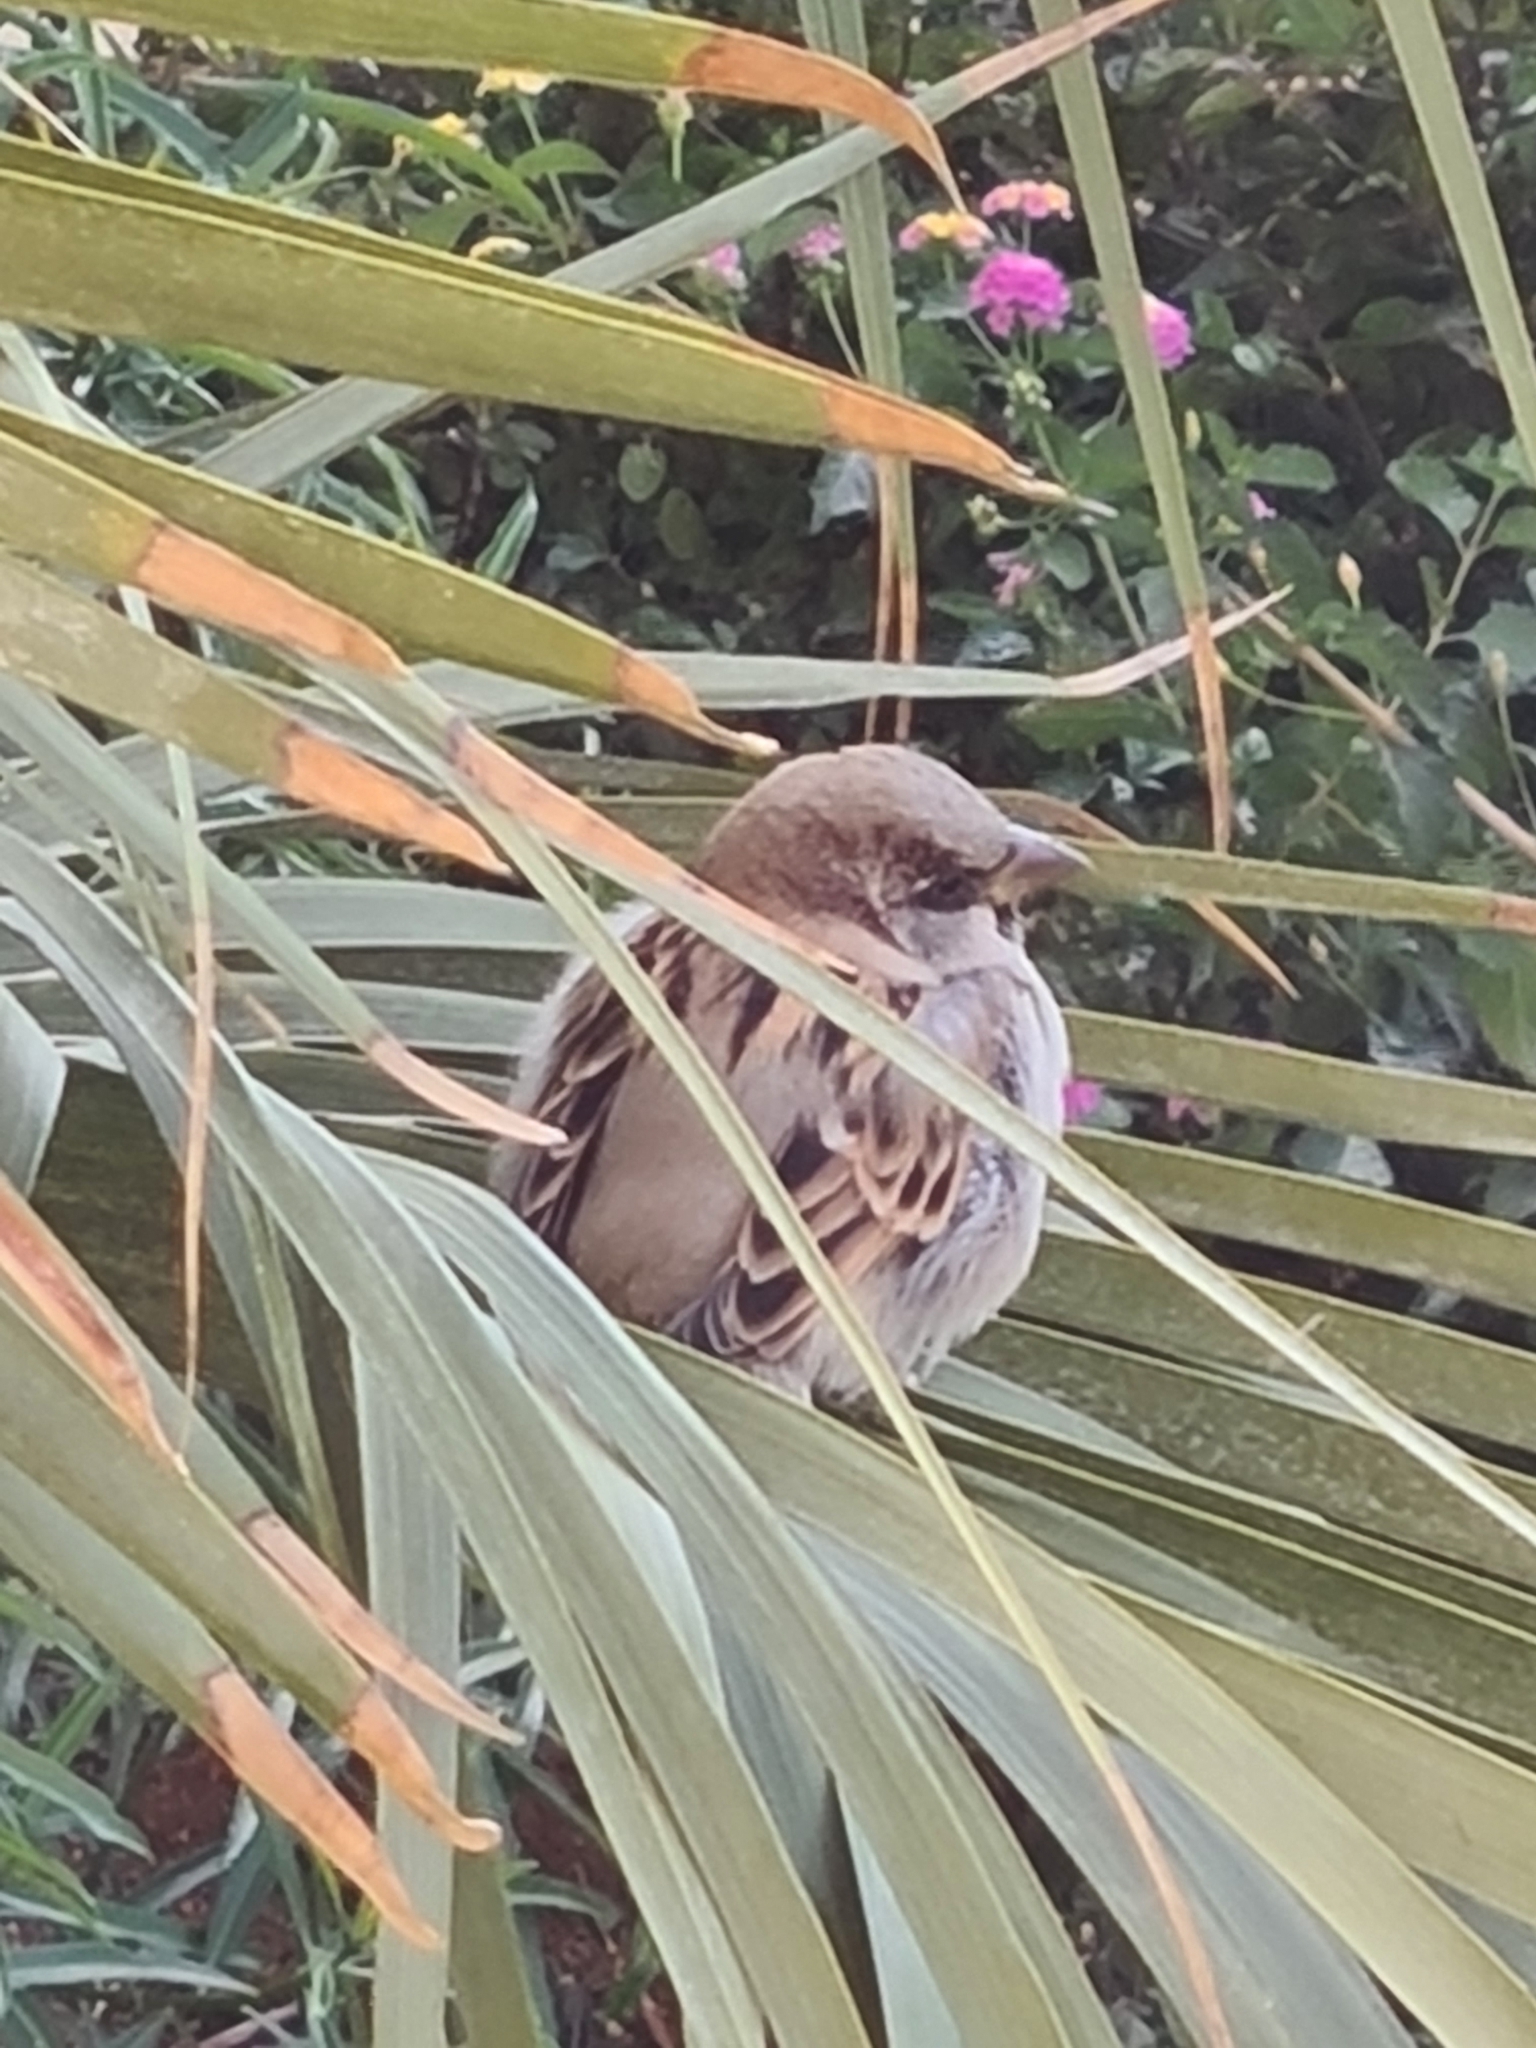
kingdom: Animalia
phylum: Chordata
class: Aves
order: Passeriformes
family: Passeridae
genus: Passer
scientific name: Passer domesticus
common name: House sparrow
